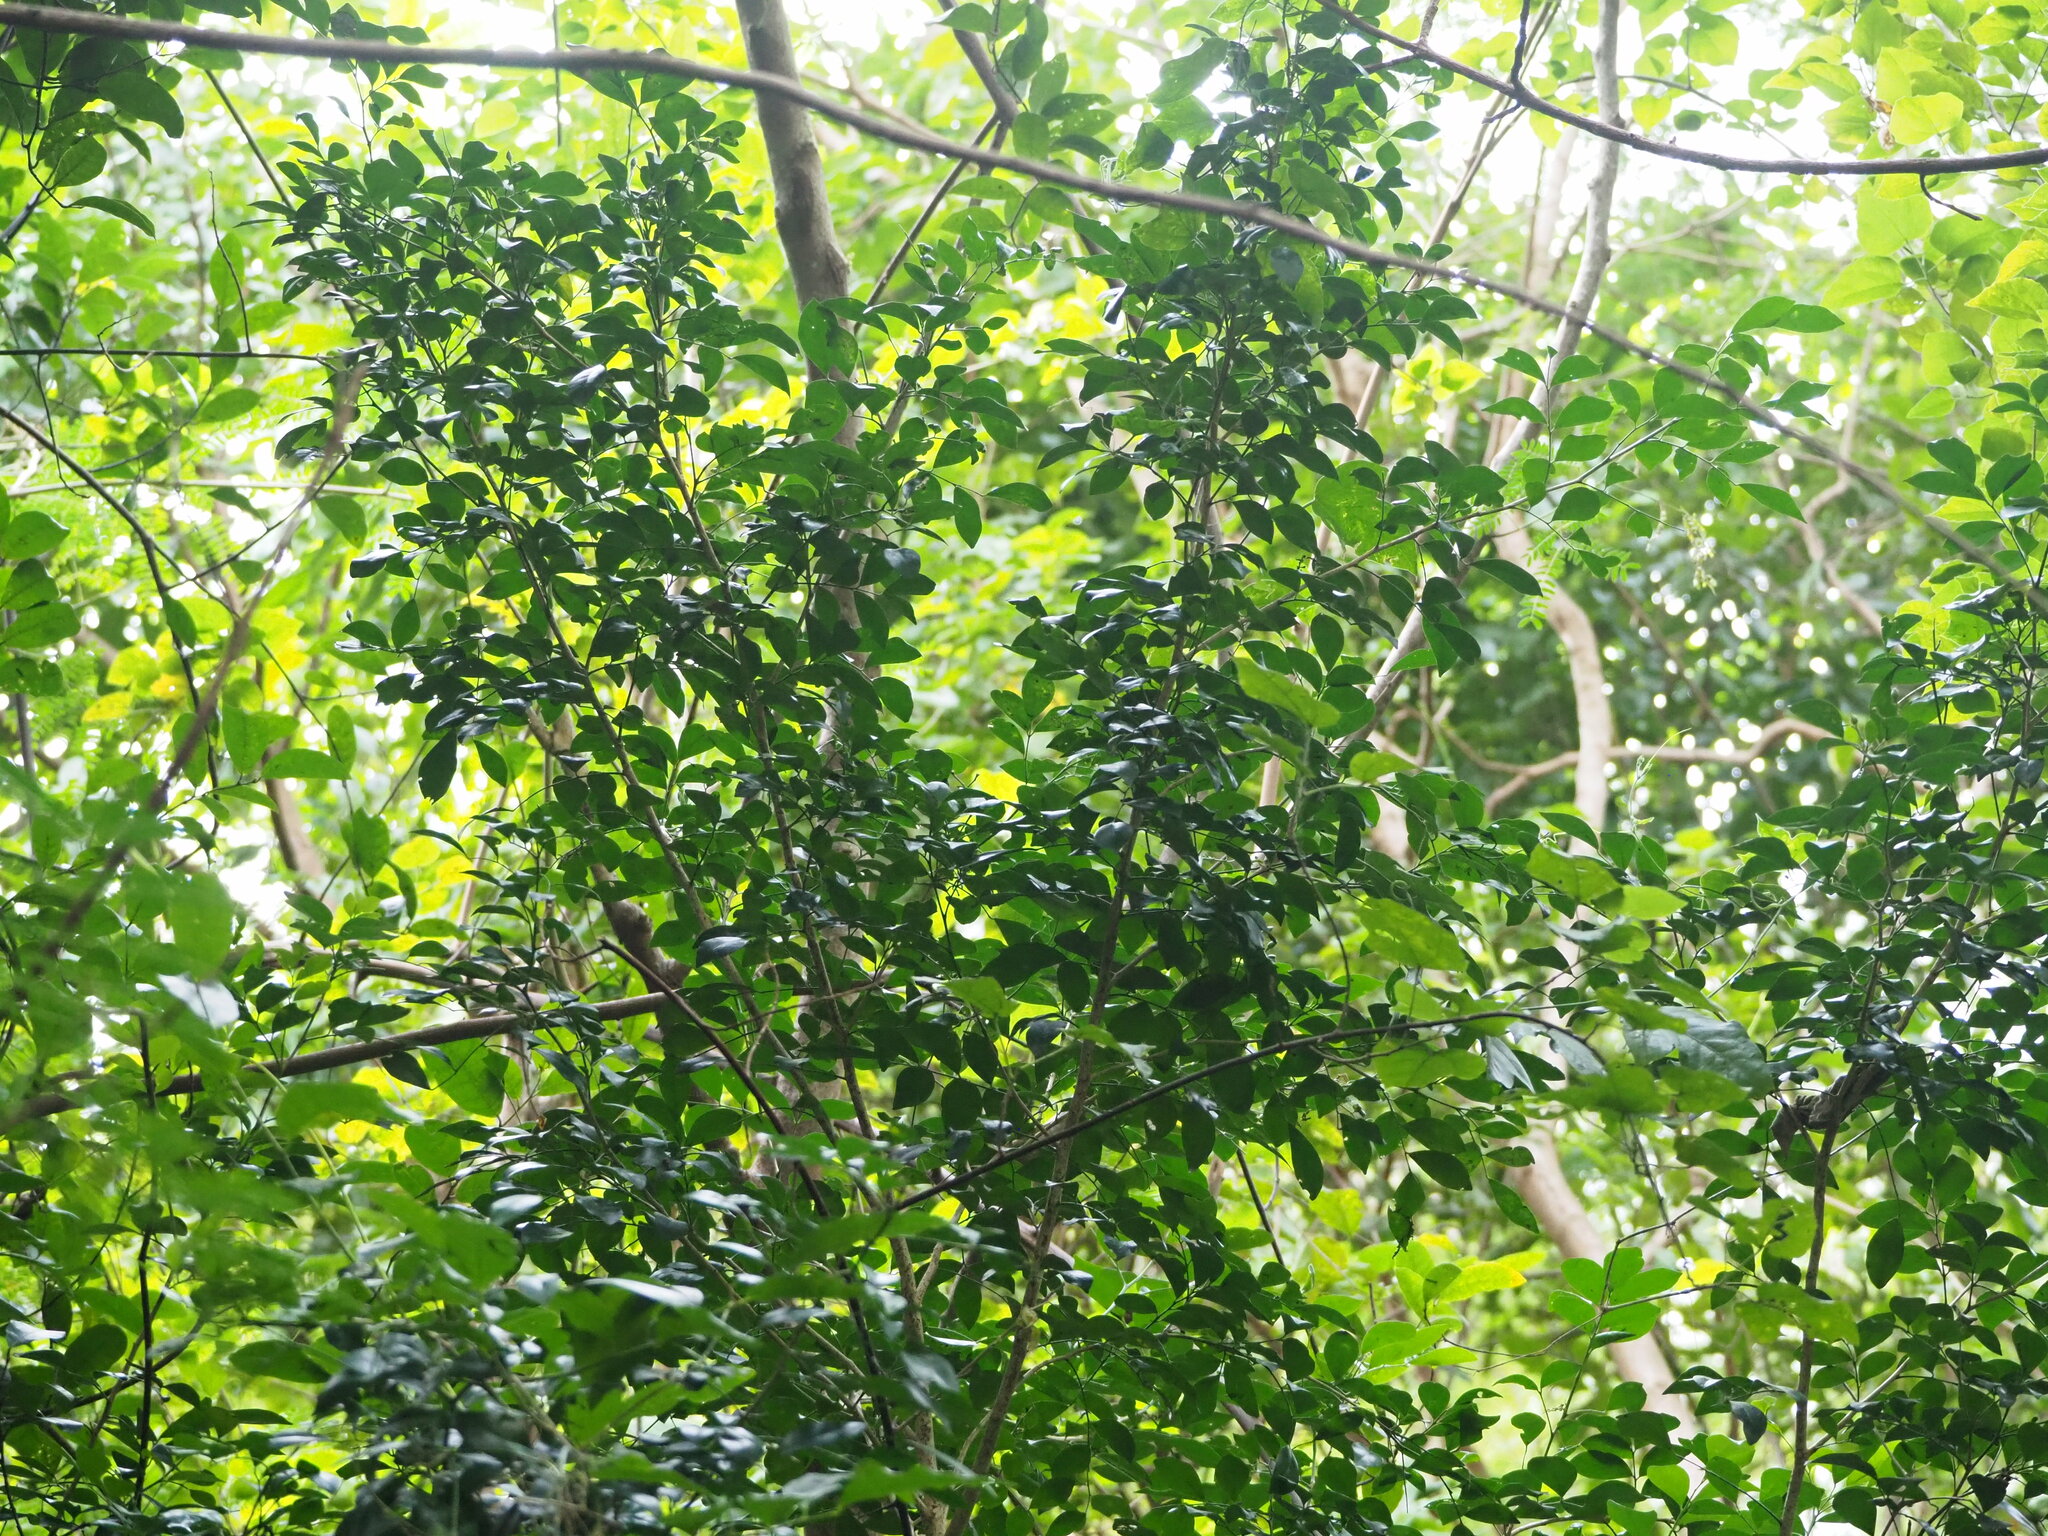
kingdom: Plantae
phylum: Tracheophyta
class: Magnoliopsida
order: Sapindales
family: Rutaceae
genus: Murraya
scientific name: Murraya paniculata
